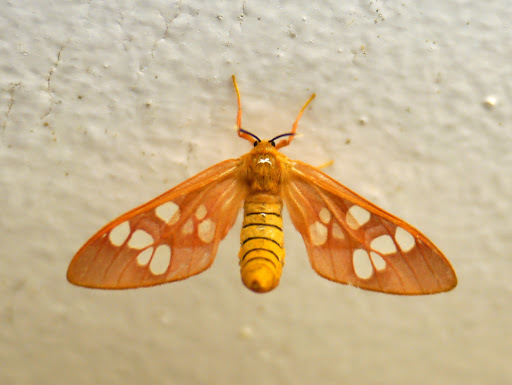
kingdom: Animalia
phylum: Arthropoda
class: Insecta
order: Lepidoptera
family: Erebidae
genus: Pseudothyretes
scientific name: Pseudothyretes carnea
